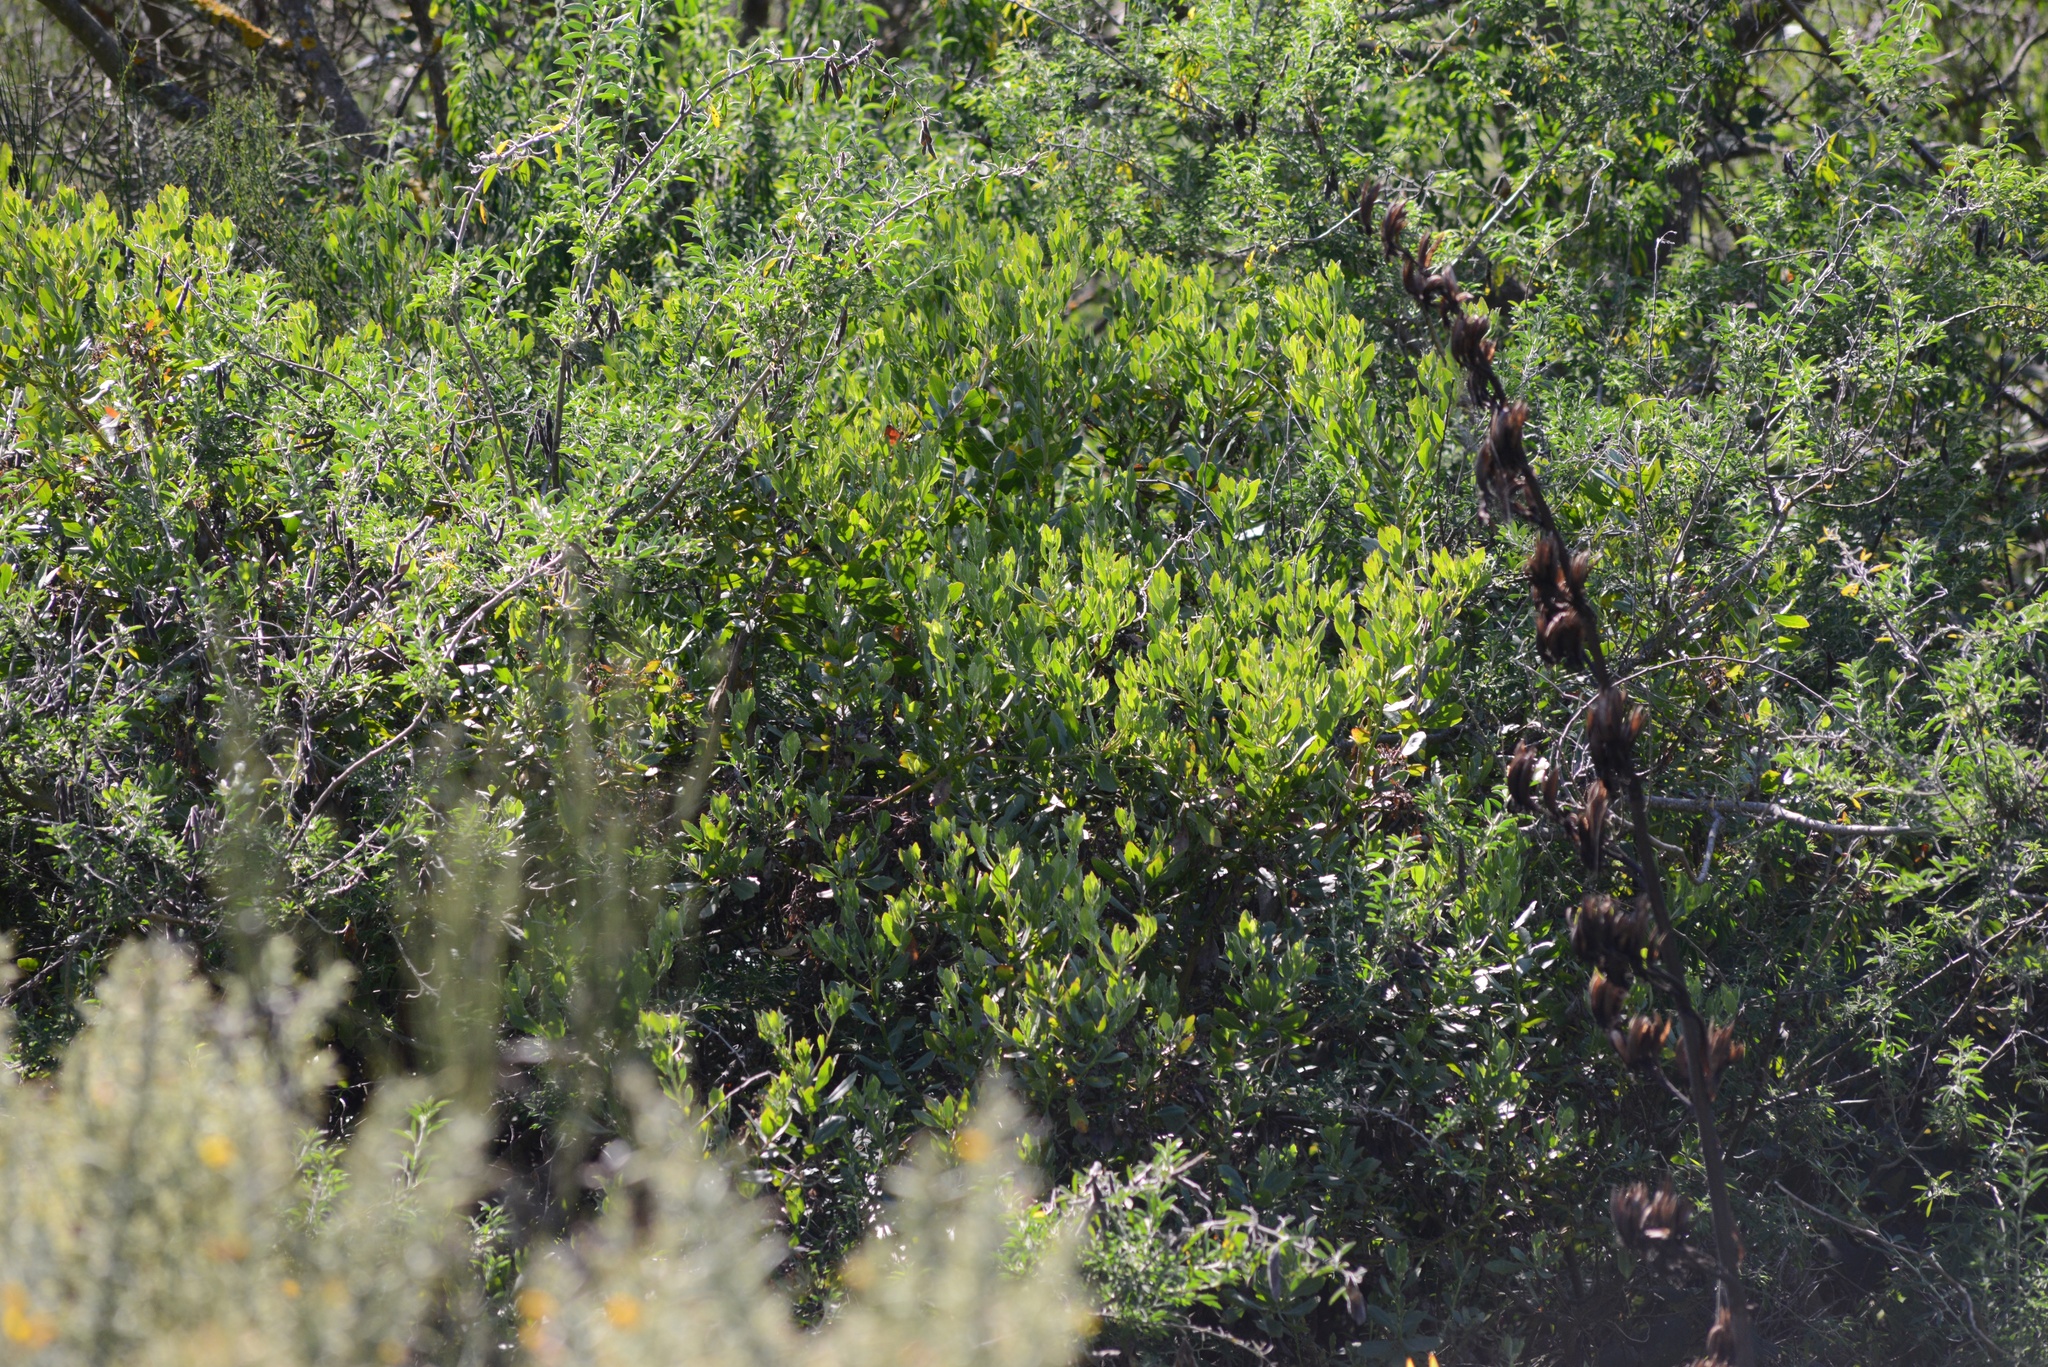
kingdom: Plantae
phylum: Tracheophyta
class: Magnoliopsida
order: Asterales
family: Asteraceae
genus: Osteospermum
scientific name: Osteospermum moniliferum
